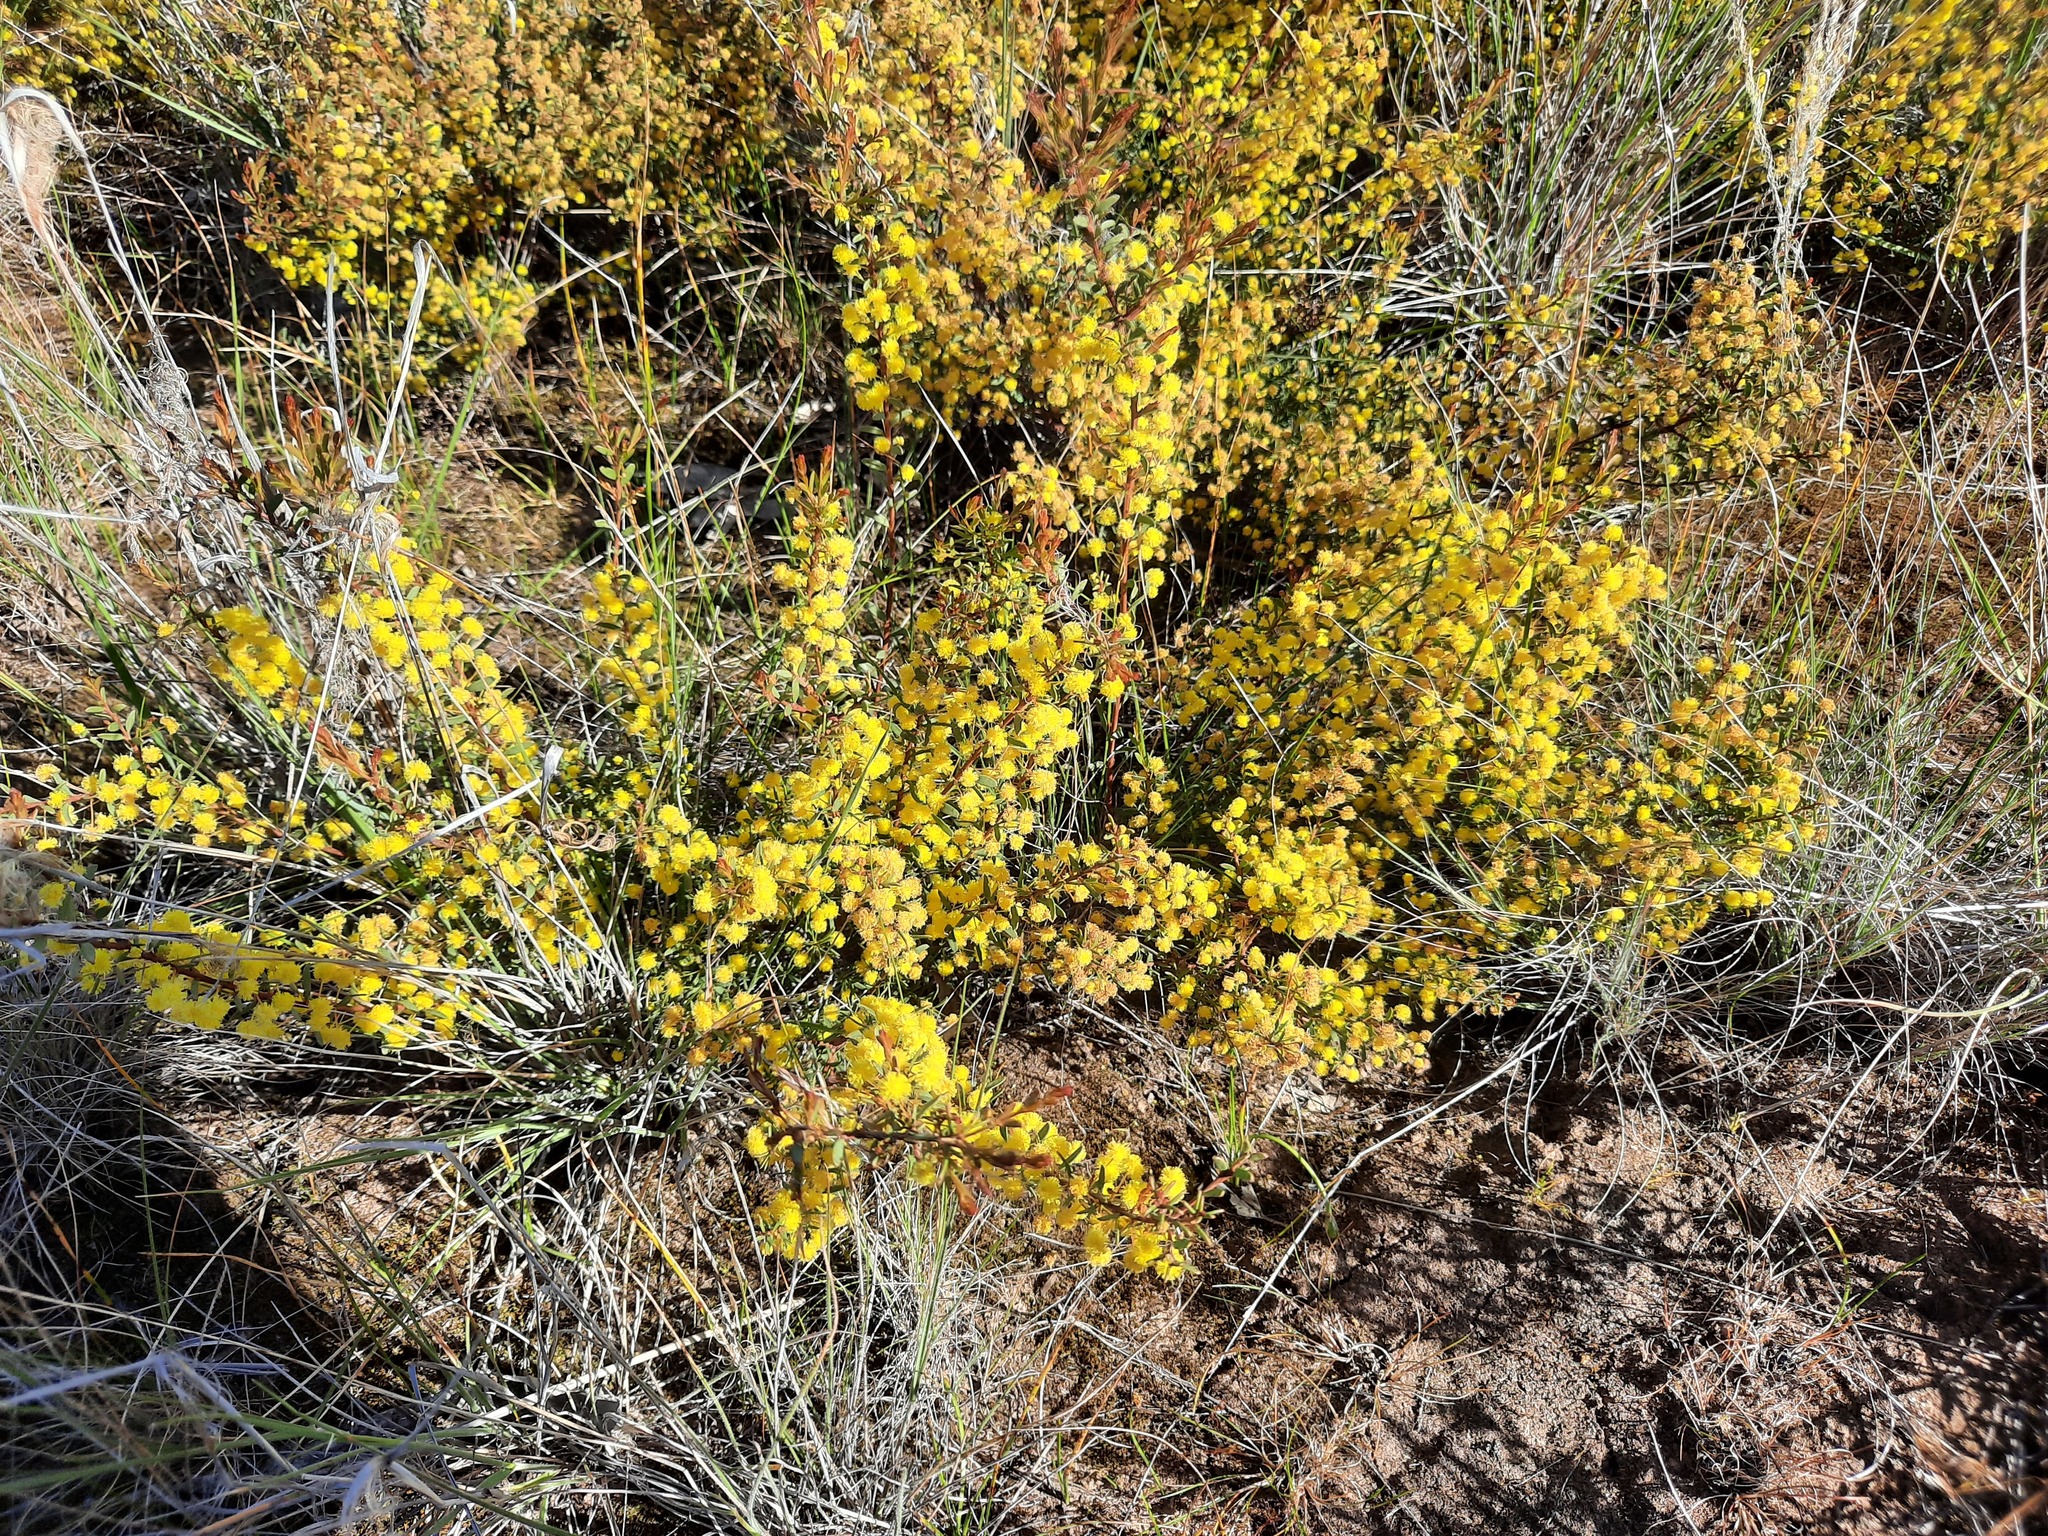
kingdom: Plantae
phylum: Tracheophyta
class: Magnoliopsida
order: Fabales
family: Fabaceae
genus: Acacia
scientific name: Acacia acinacea
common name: Gold-dust acacia
